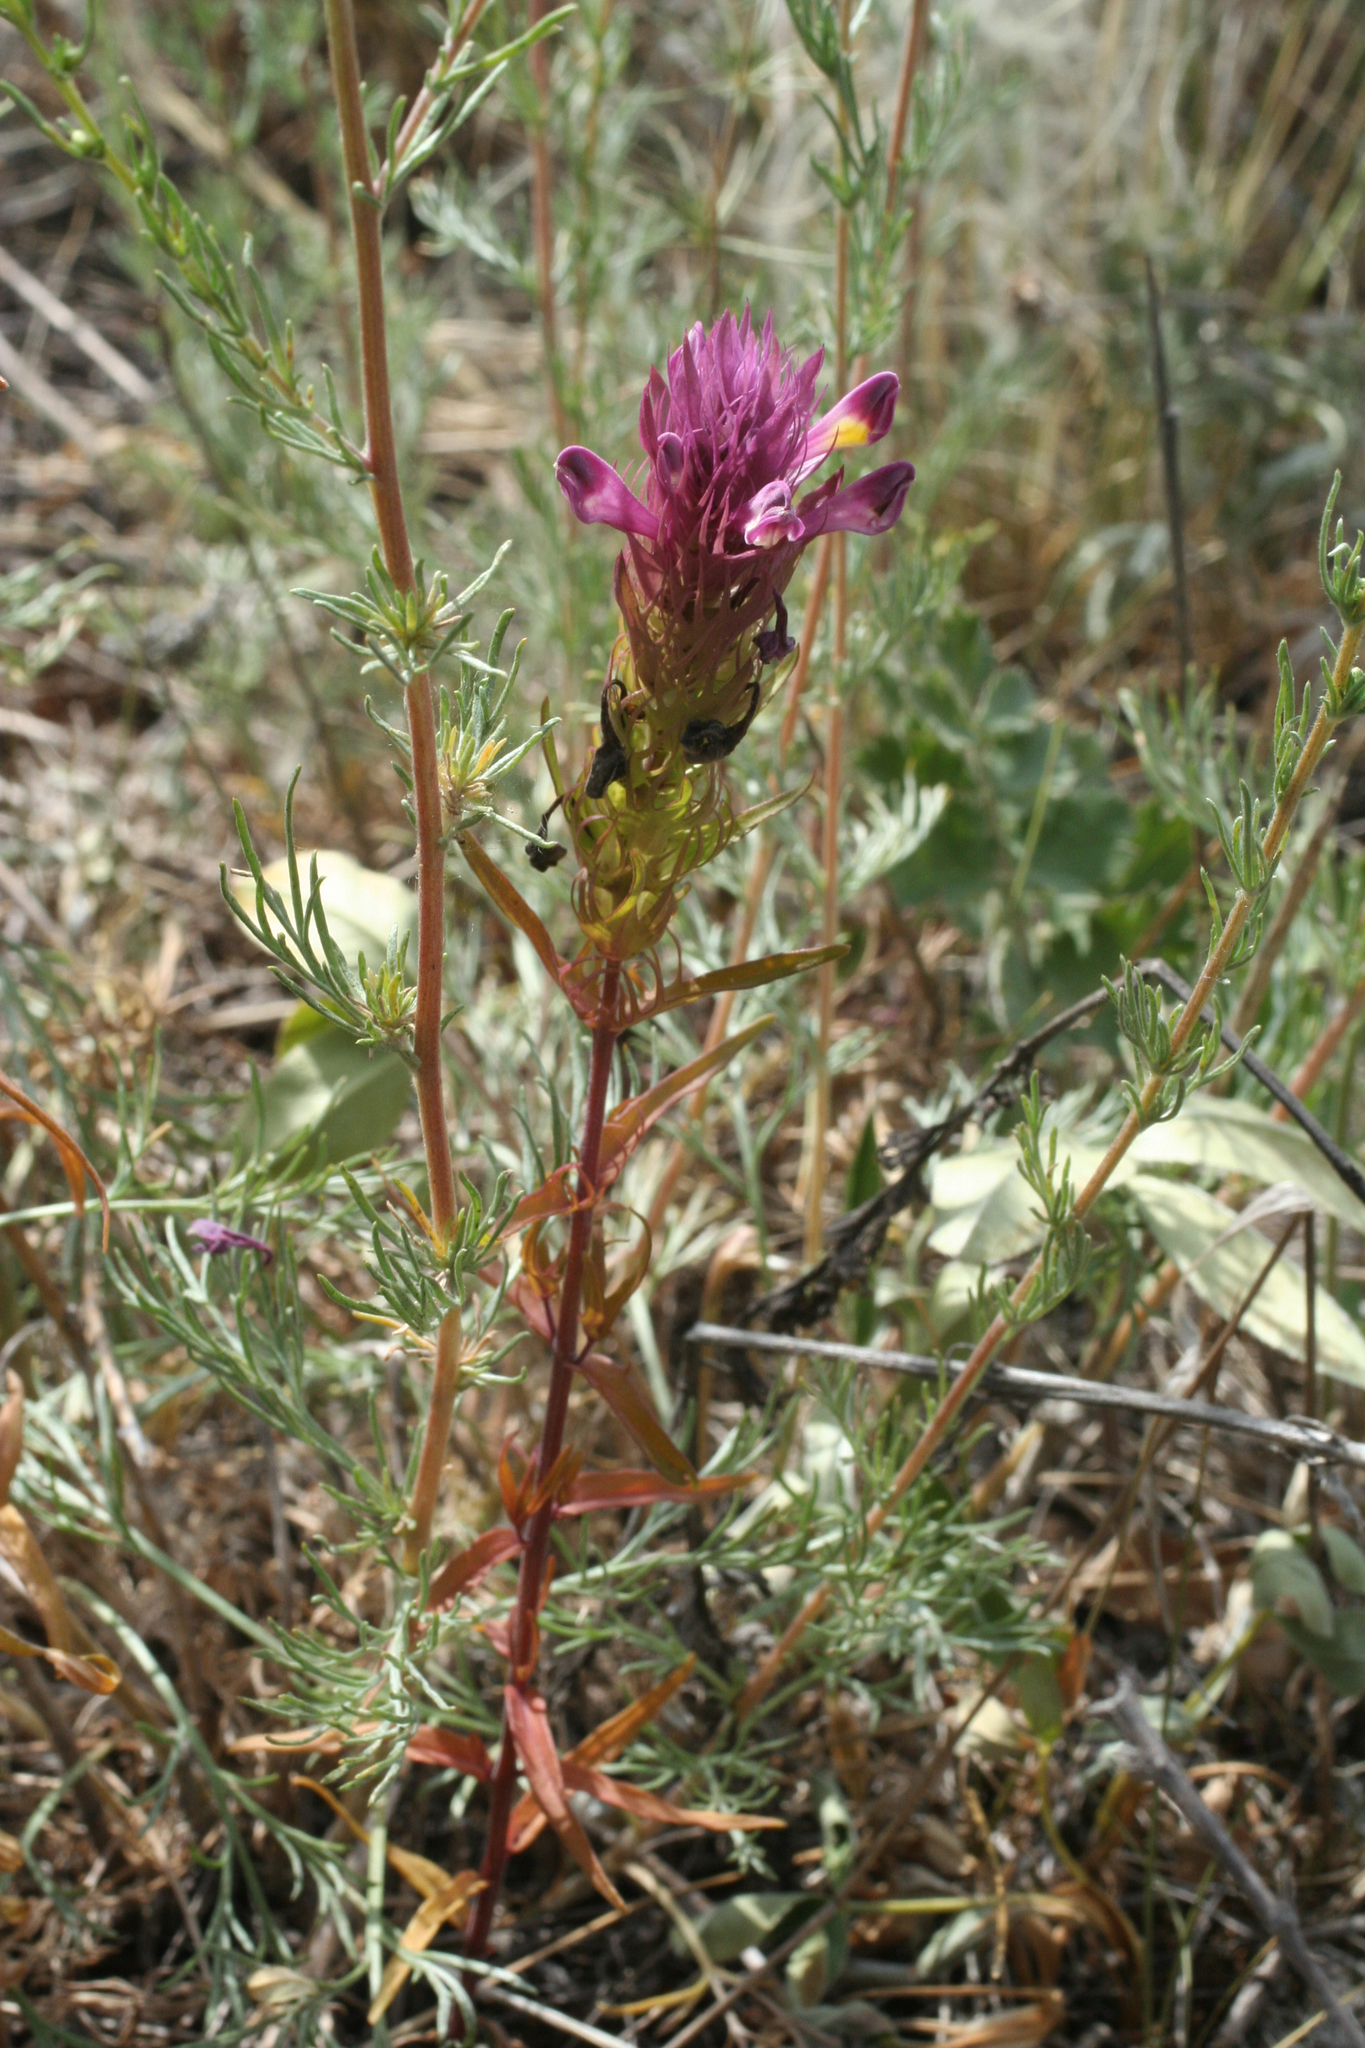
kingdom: Plantae
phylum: Tracheophyta
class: Magnoliopsida
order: Lamiales
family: Orobanchaceae
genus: Melampyrum
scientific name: Melampyrum arvense
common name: Field cow-wheat
